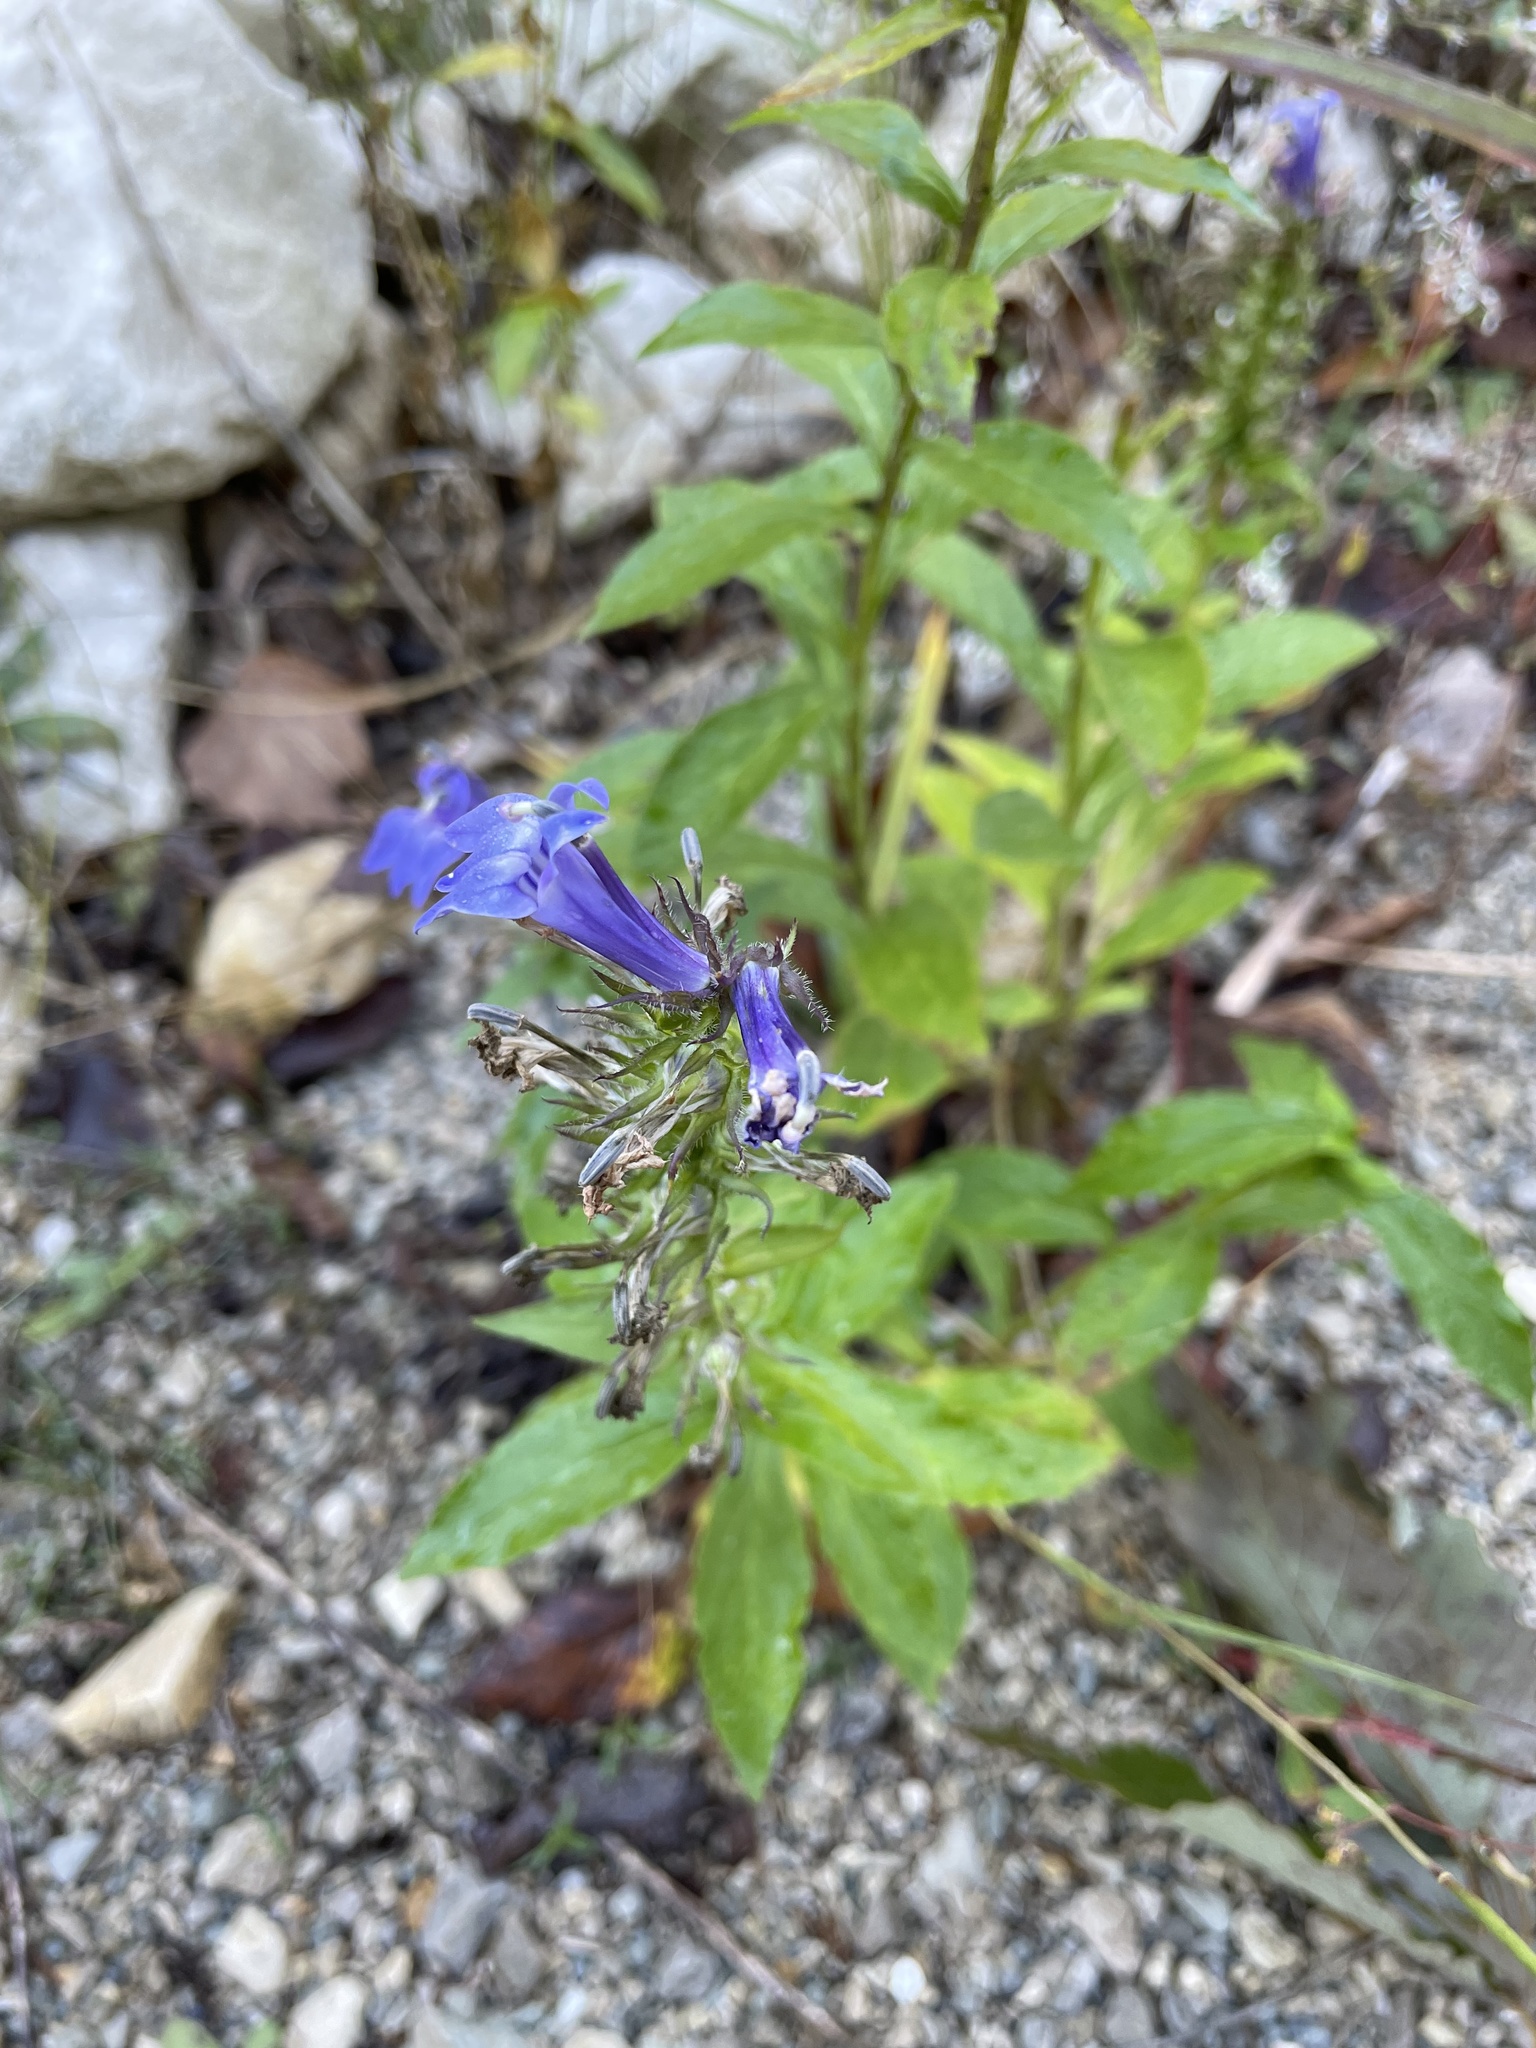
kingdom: Plantae
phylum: Tracheophyta
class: Magnoliopsida
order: Asterales
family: Campanulaceae
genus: Lobelia
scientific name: Lobelia siphilitica
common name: Great lobelia
